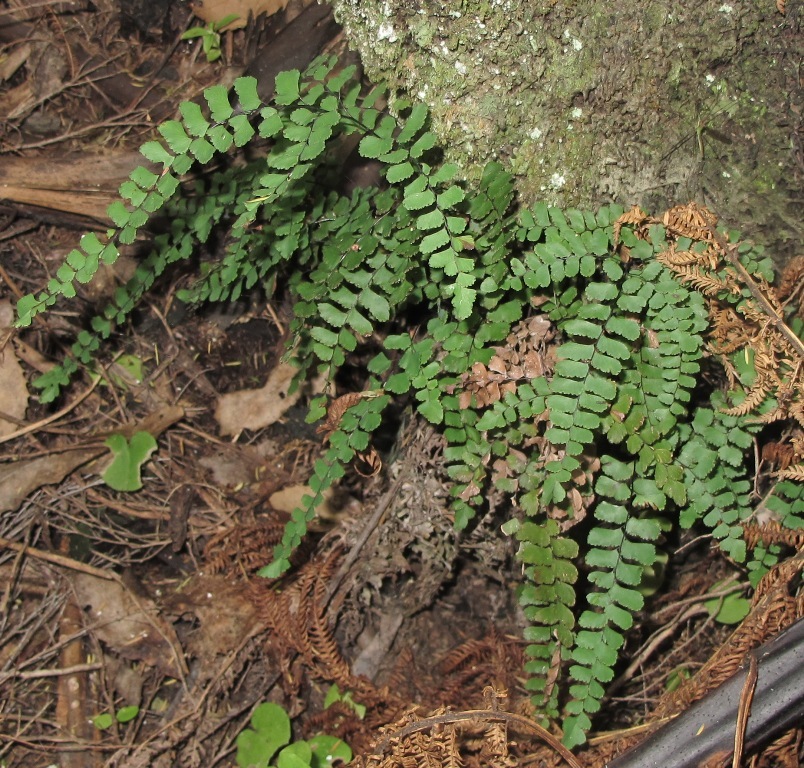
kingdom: Plantae
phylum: Tracheophyta
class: Polypodiopsida
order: Polypodiales
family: Pteridaceae
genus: Adiantum
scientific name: Adiantum cunninghamii
